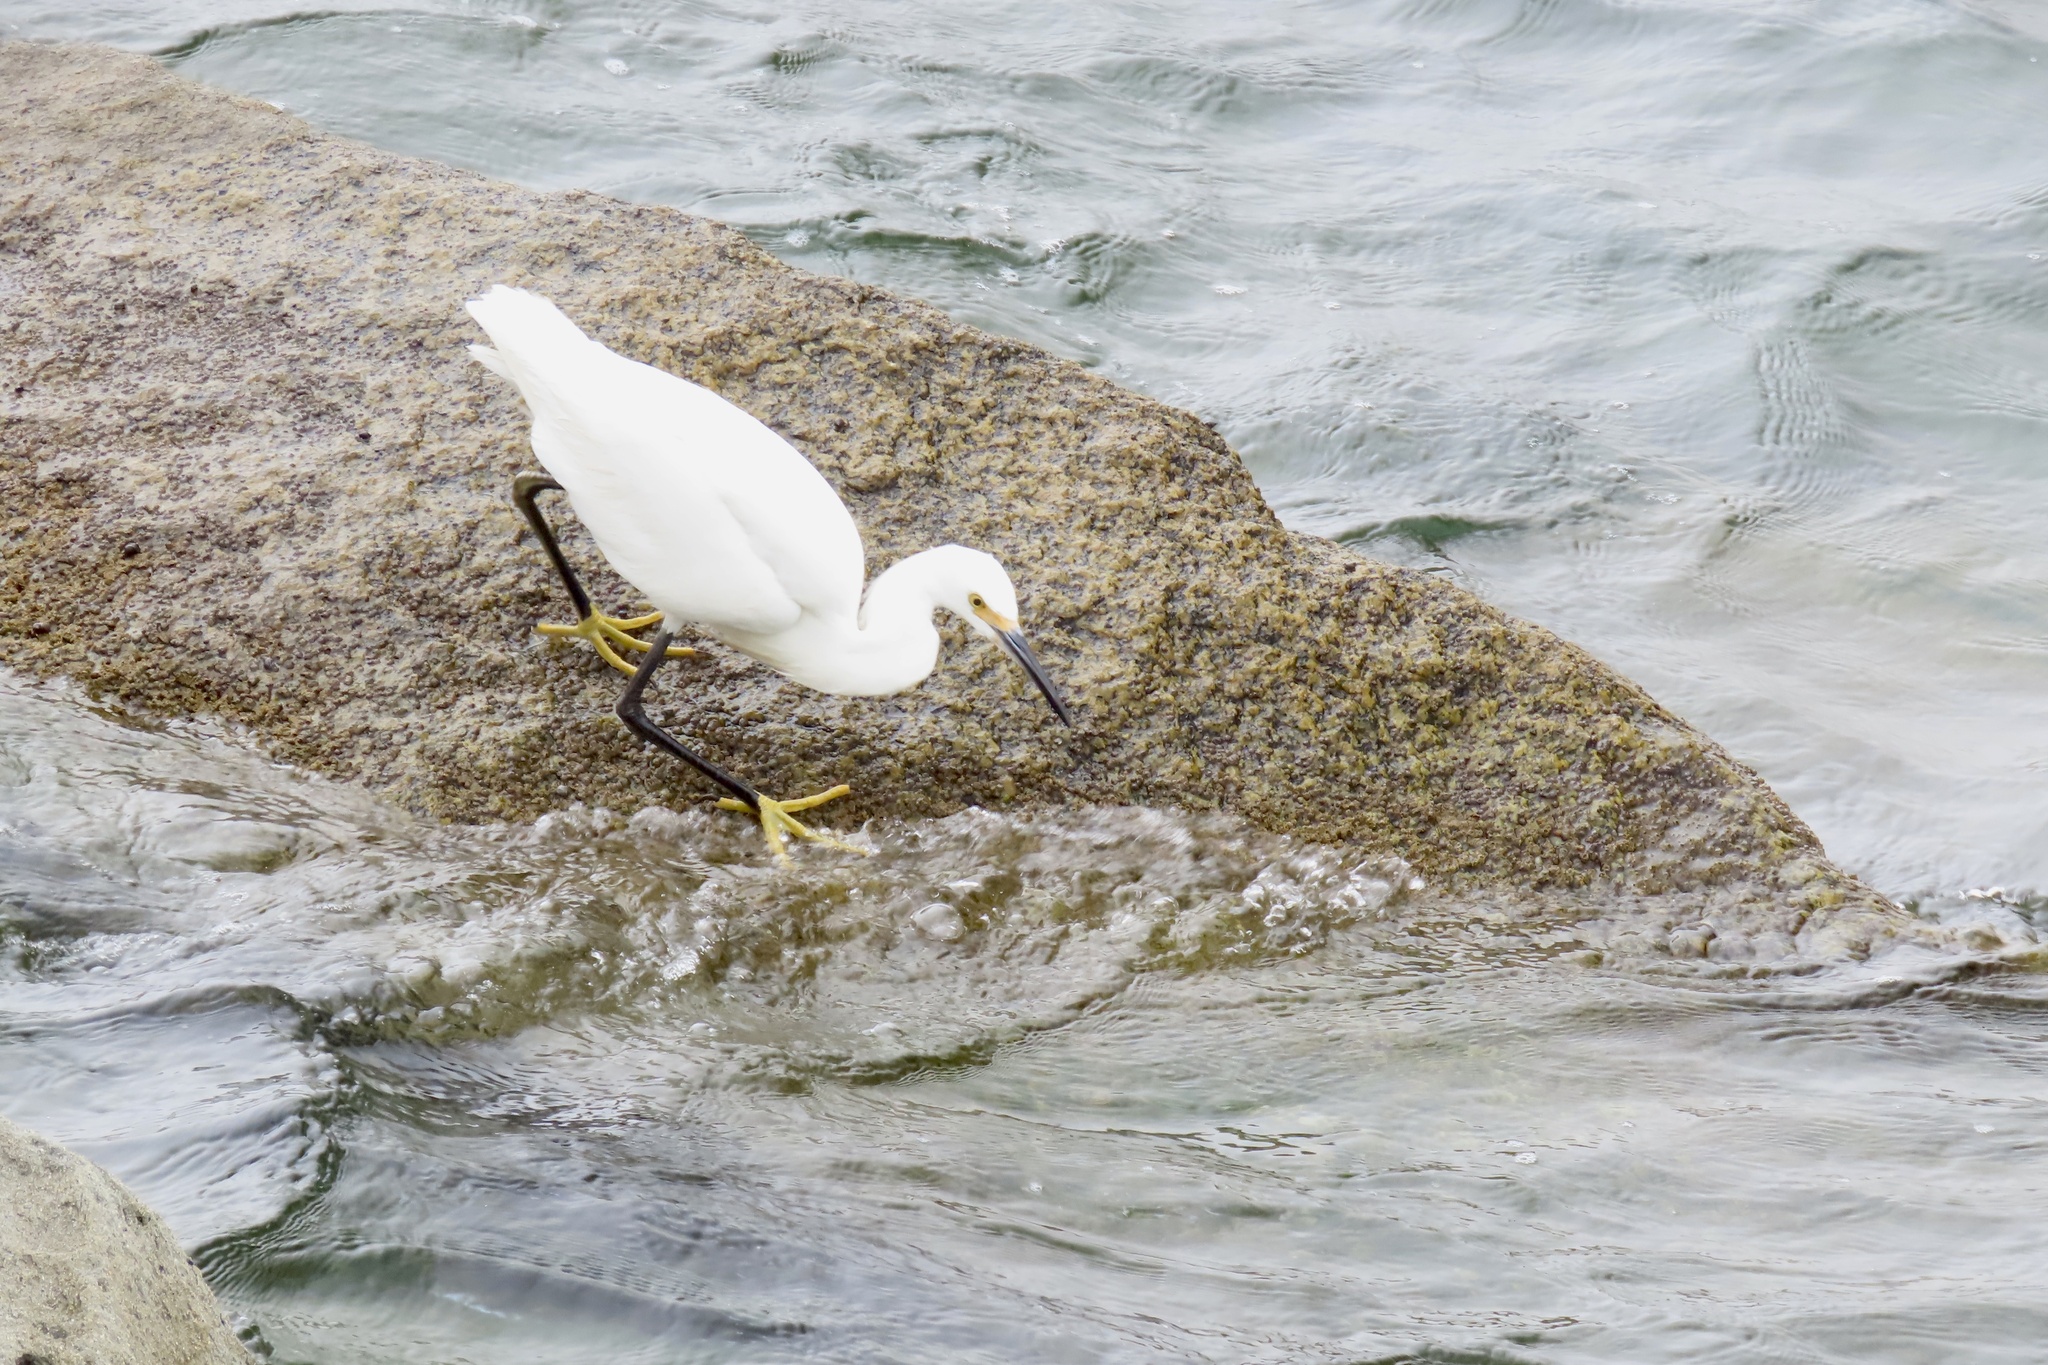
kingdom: Animalia
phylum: Chordata
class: Aves
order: Pelecaniformes
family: Ardeidae
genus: Egretta
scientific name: Egretta thula
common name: Snowy egret
